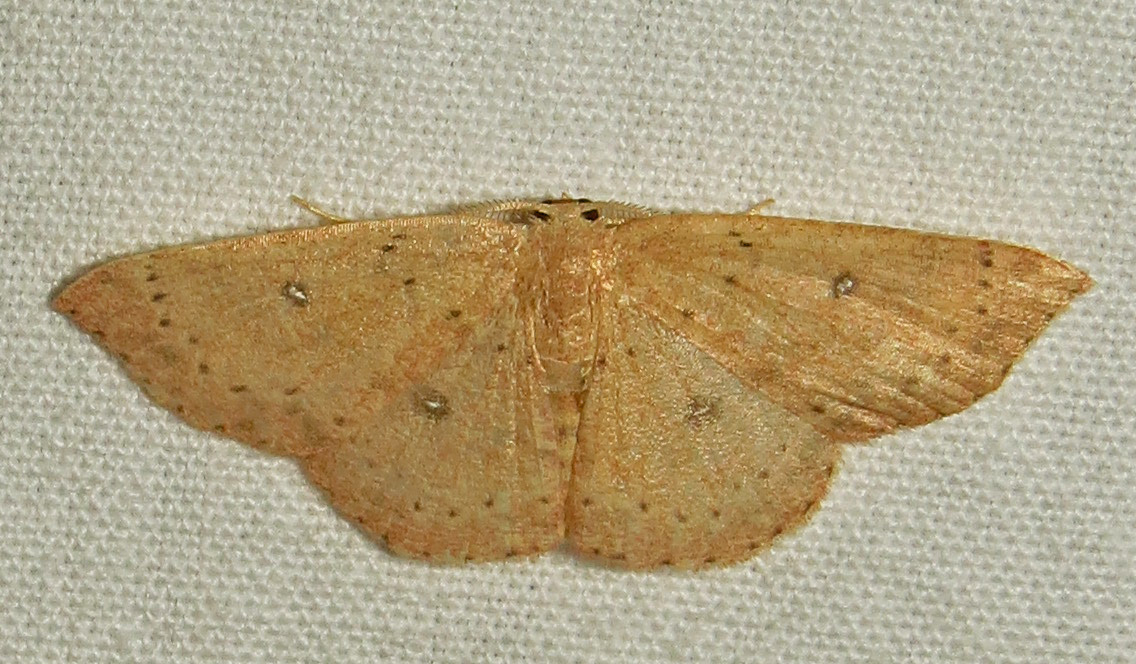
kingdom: Animalia
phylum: Arthropoda
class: Insecta
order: Lepidoptera
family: Geometridae
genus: Cyclophora
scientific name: Cyclophora packardi
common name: Packard's wave
